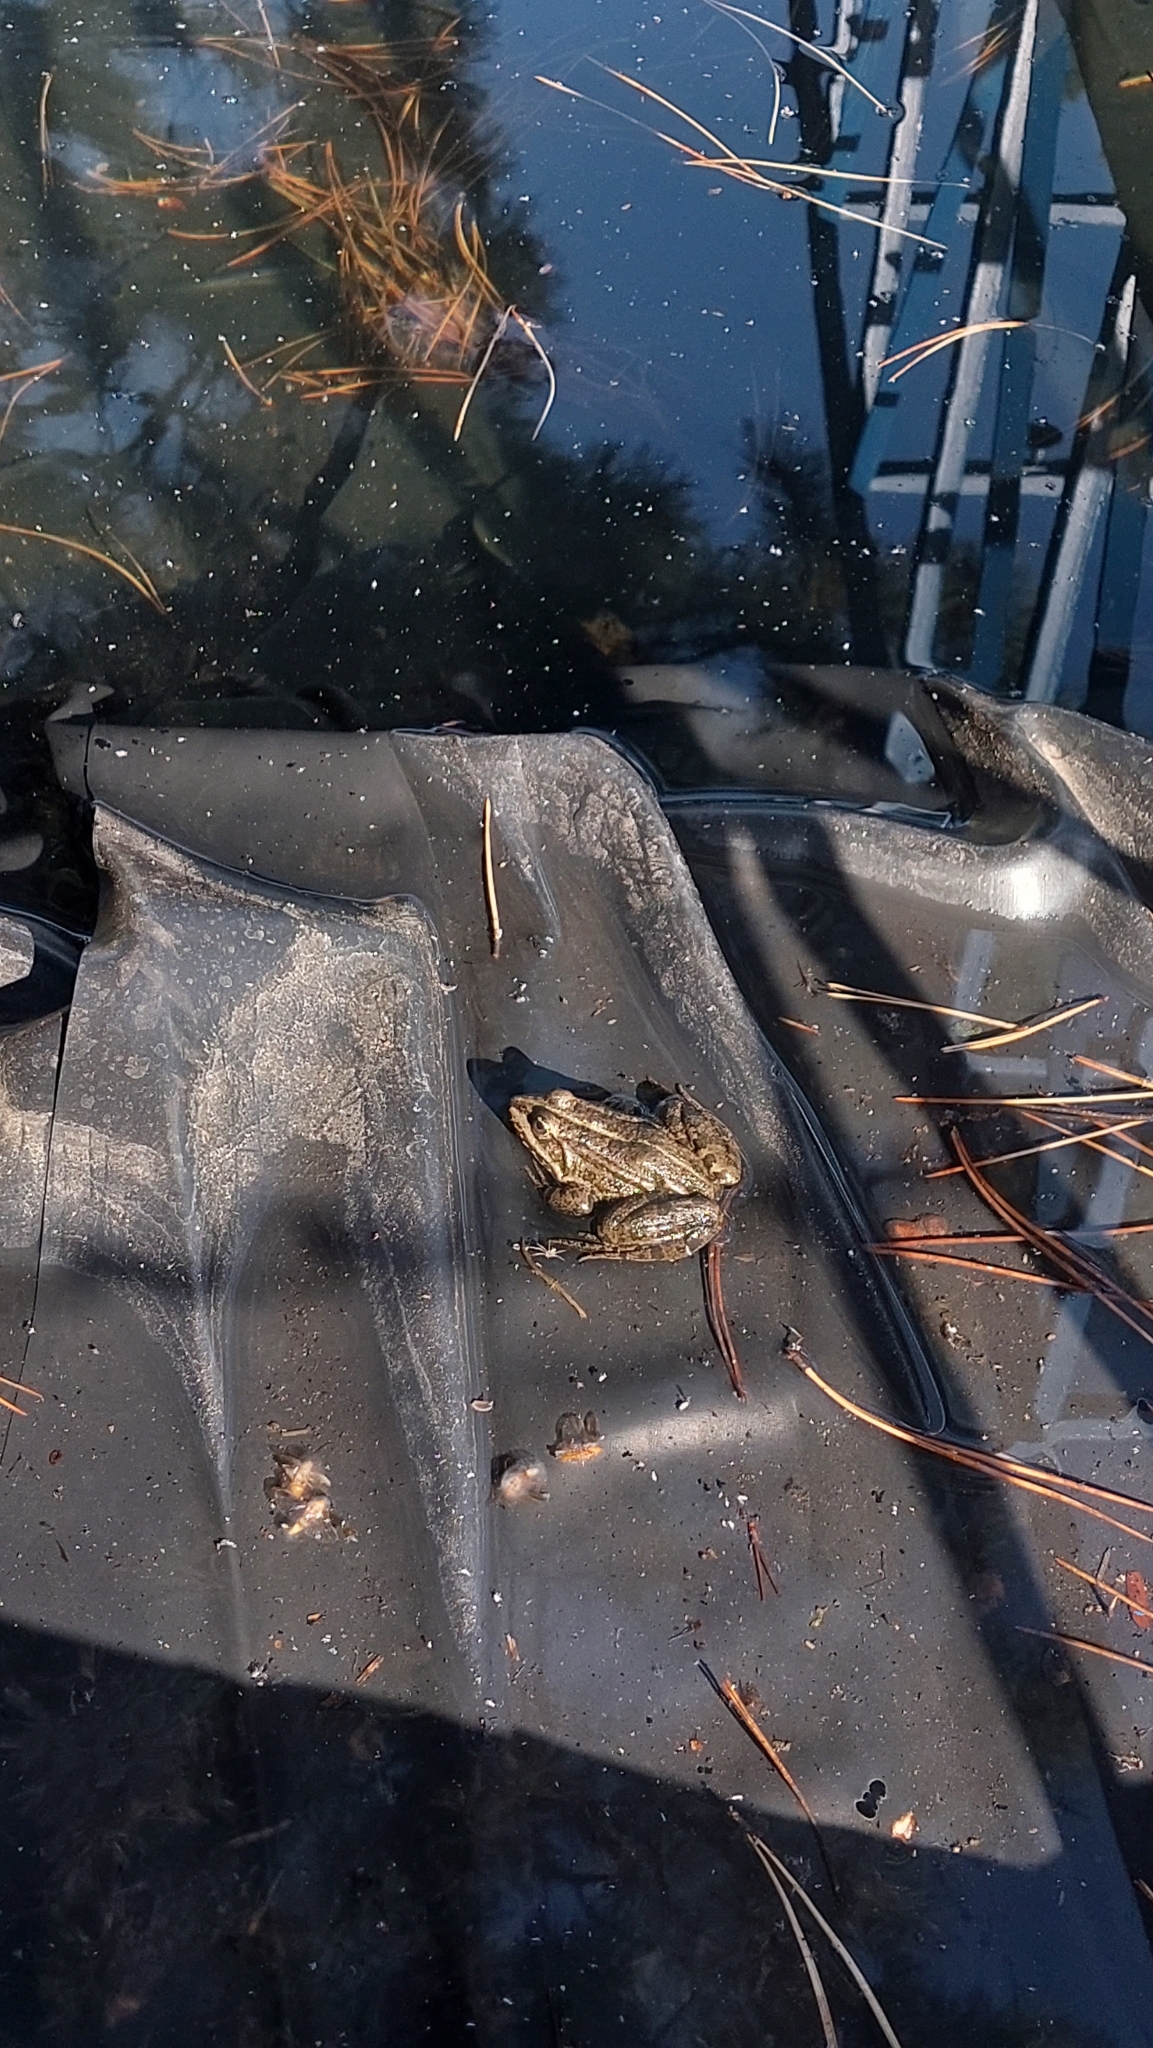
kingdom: Animalia
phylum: Chordata
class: Amphibia
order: Anura
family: Ranidae
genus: Pelophylax
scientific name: Pelophylax
